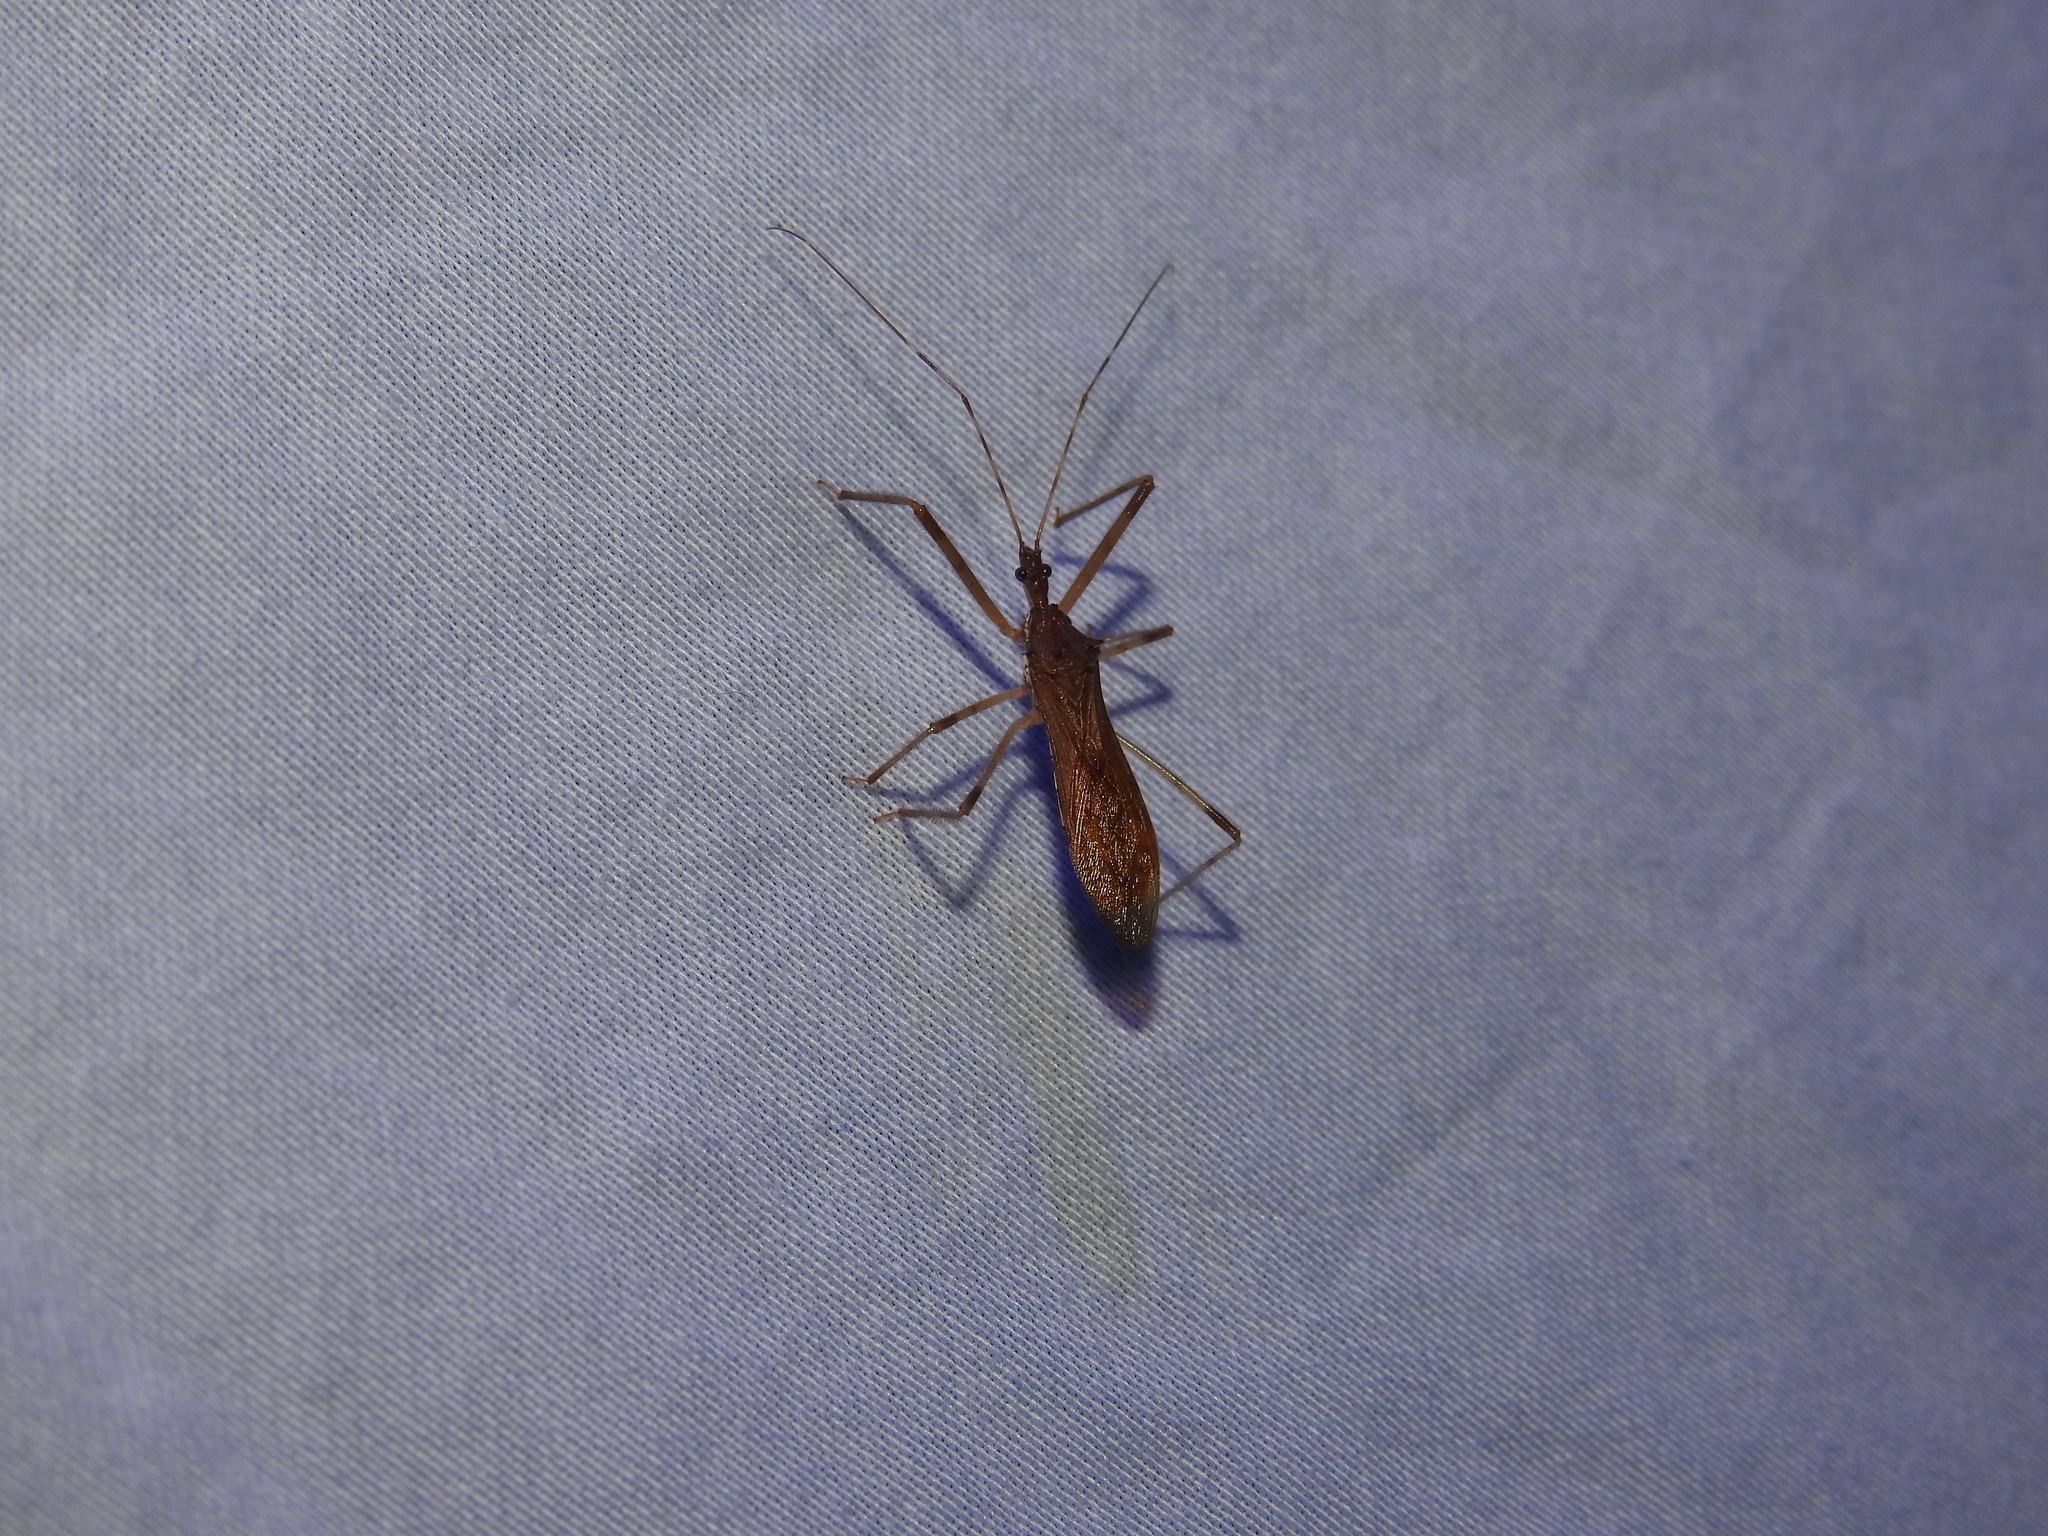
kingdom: Animalia
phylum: Arthropoda
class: Insecta
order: Hemiptera
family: Reduviidae
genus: Rocconota
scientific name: Rocconota annulicornis
